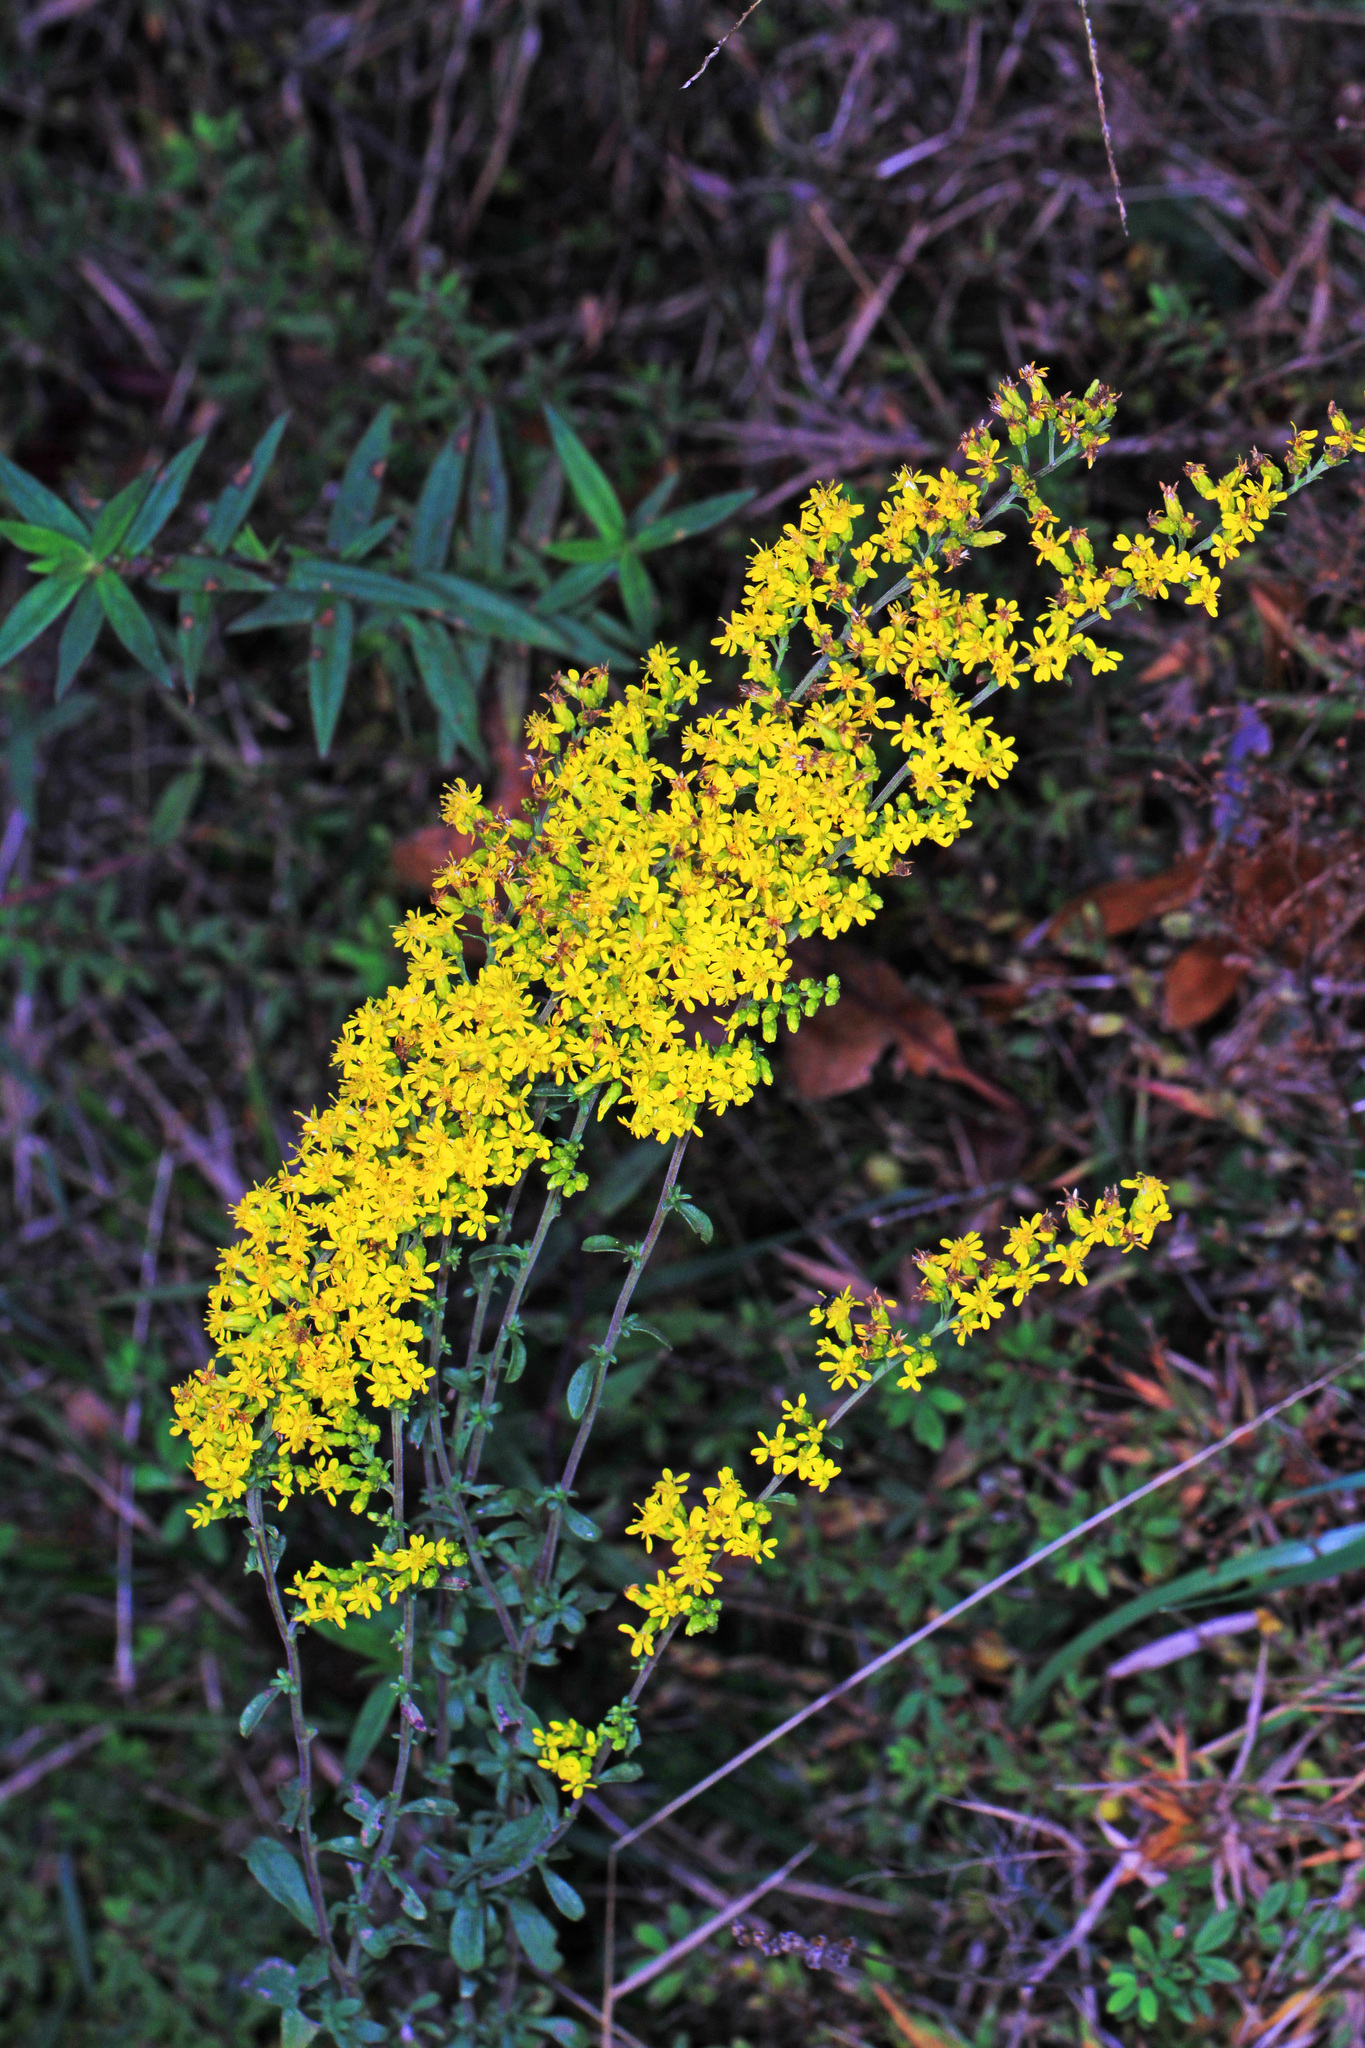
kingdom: Plantae
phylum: Tracheophyta
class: Magnoliopsida
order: Asterales
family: Asteraceae
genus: Solidago
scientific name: Solidago nemoralis
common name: Grey goldenrod
